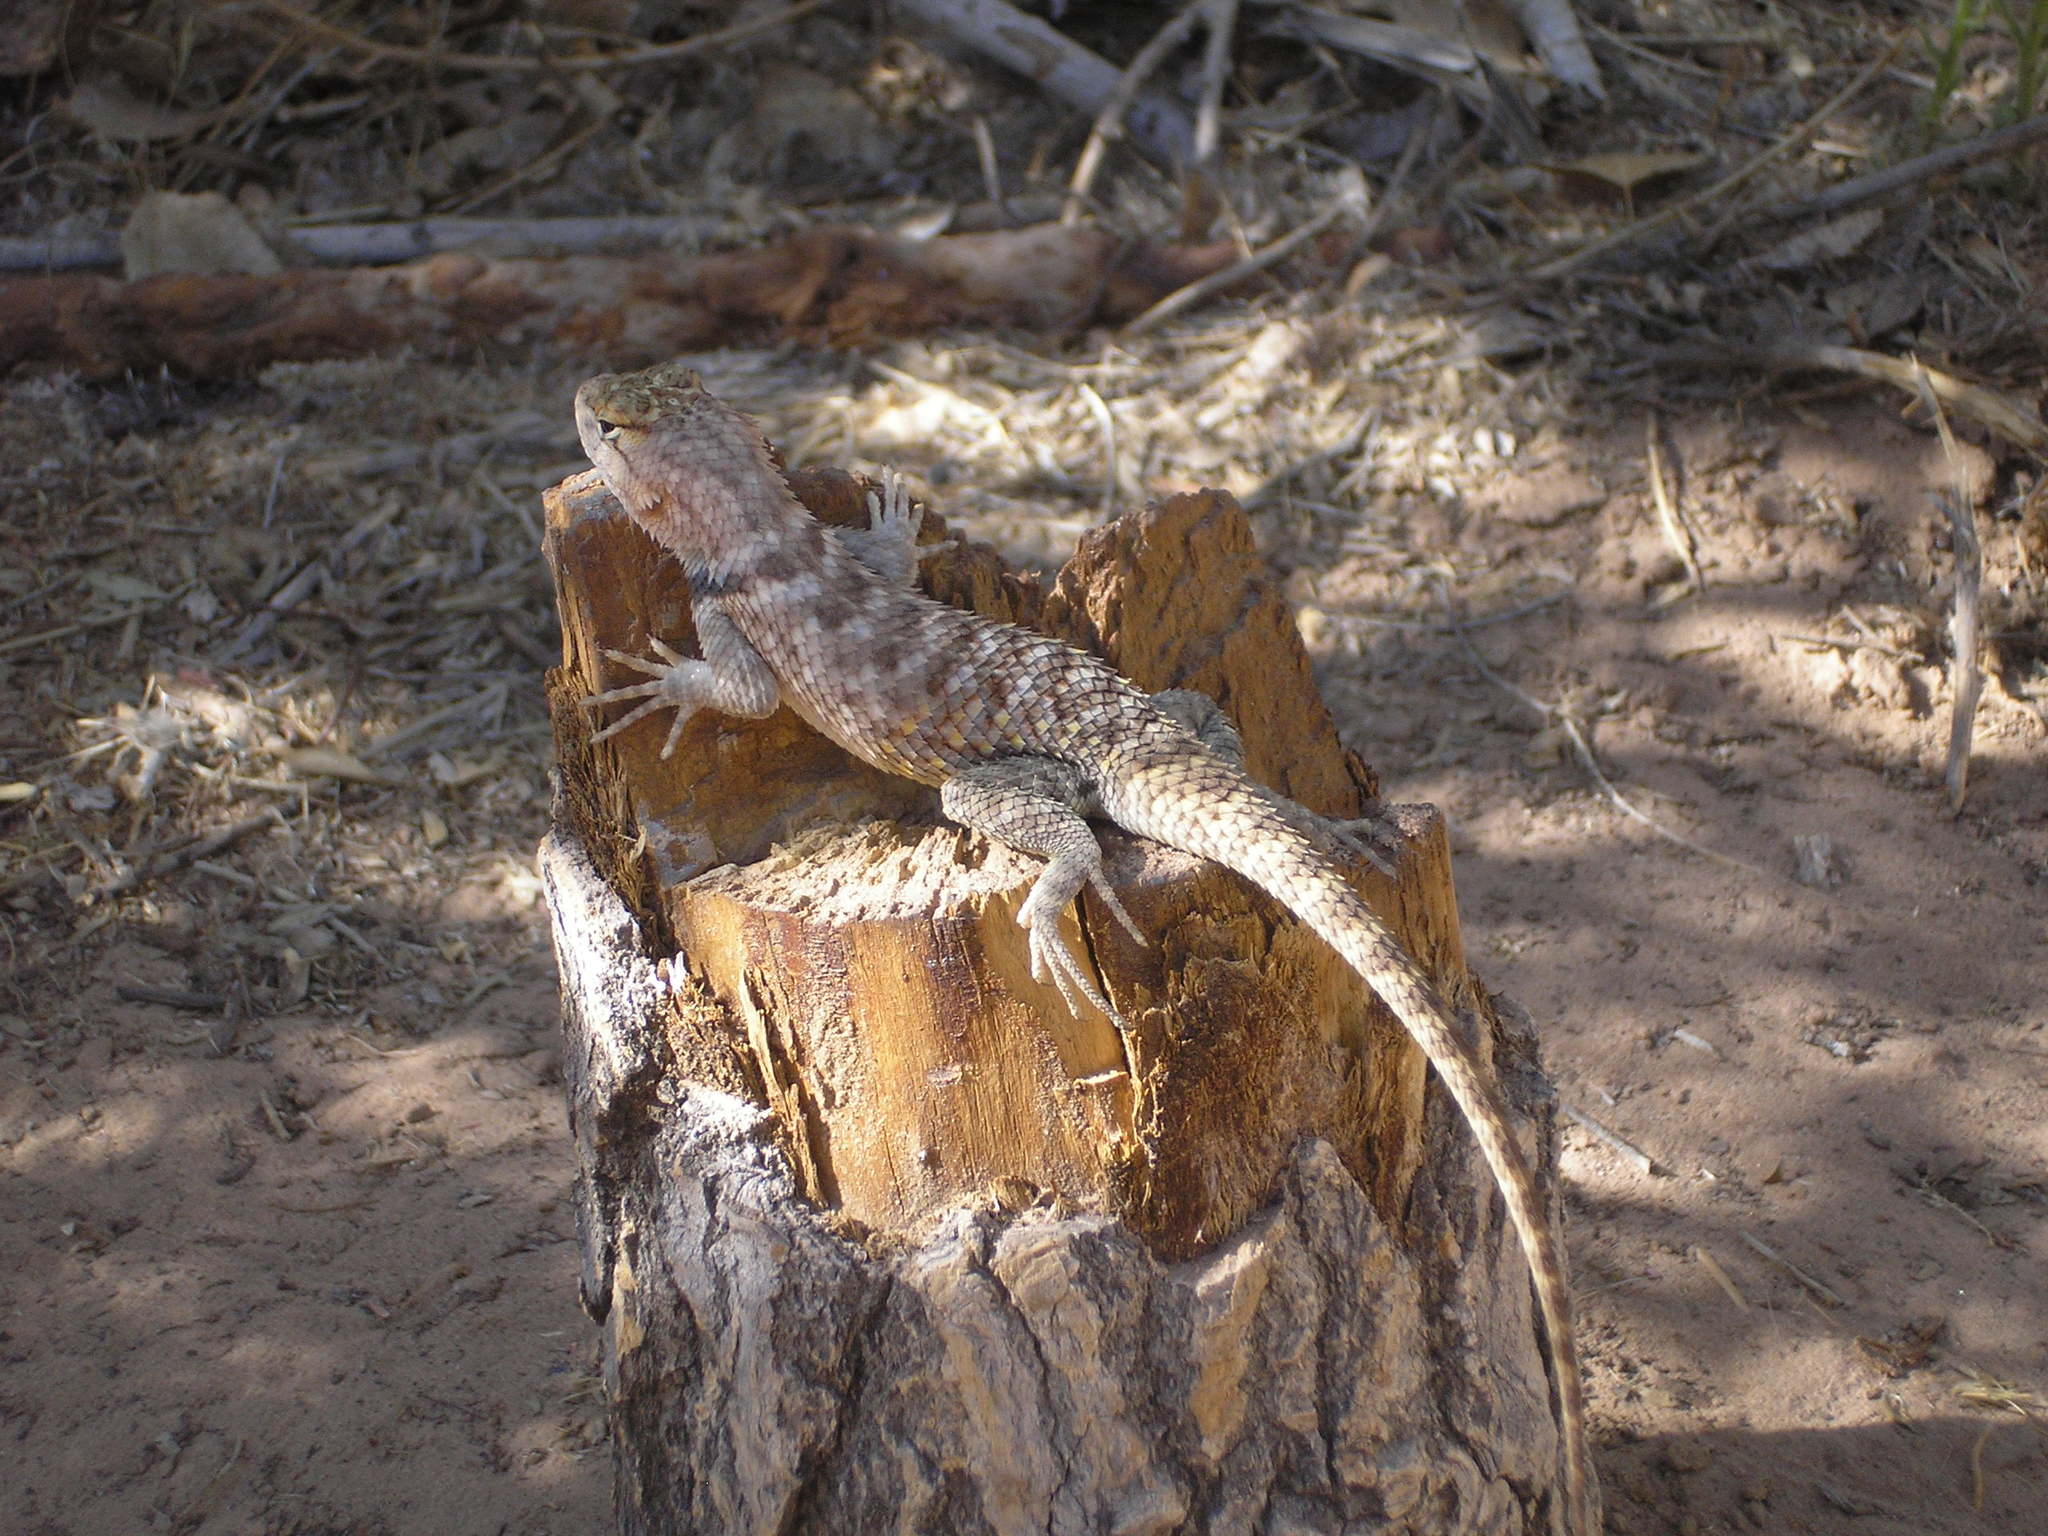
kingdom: Animalia
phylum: Chordata
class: Squamata
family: Phrynosomatidae
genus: Sceloporus
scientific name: Sceloporus magister
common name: Desert spiny lizard
